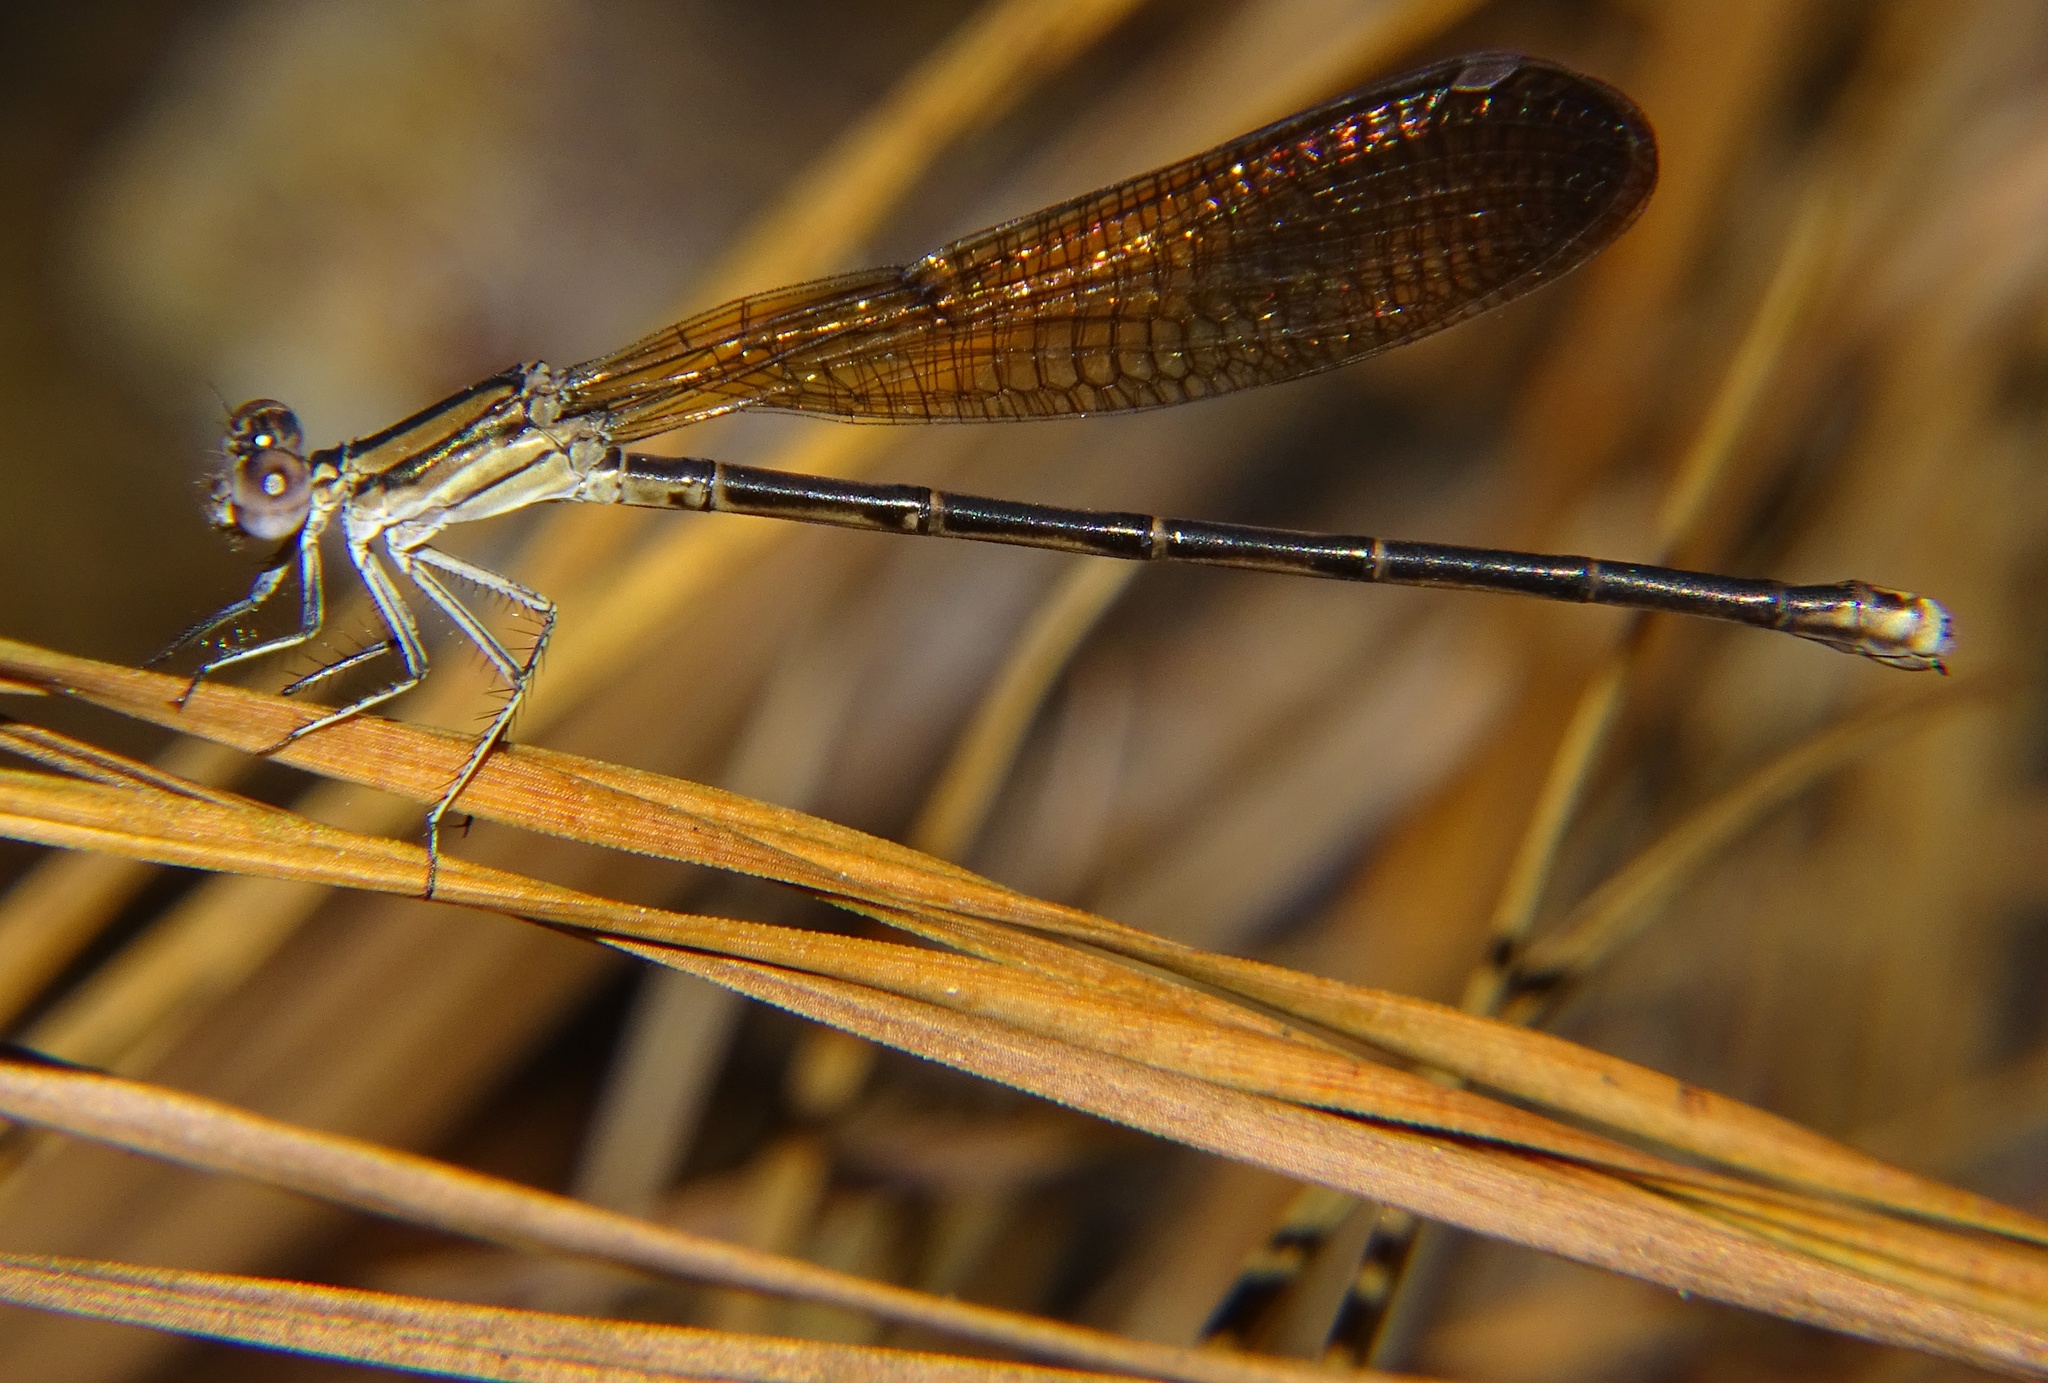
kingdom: Animalia
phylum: Arthropoda
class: Insecta
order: Odonata
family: Coenagrionidae
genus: Argia
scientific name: Argia fumipennis
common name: Variable dancer
